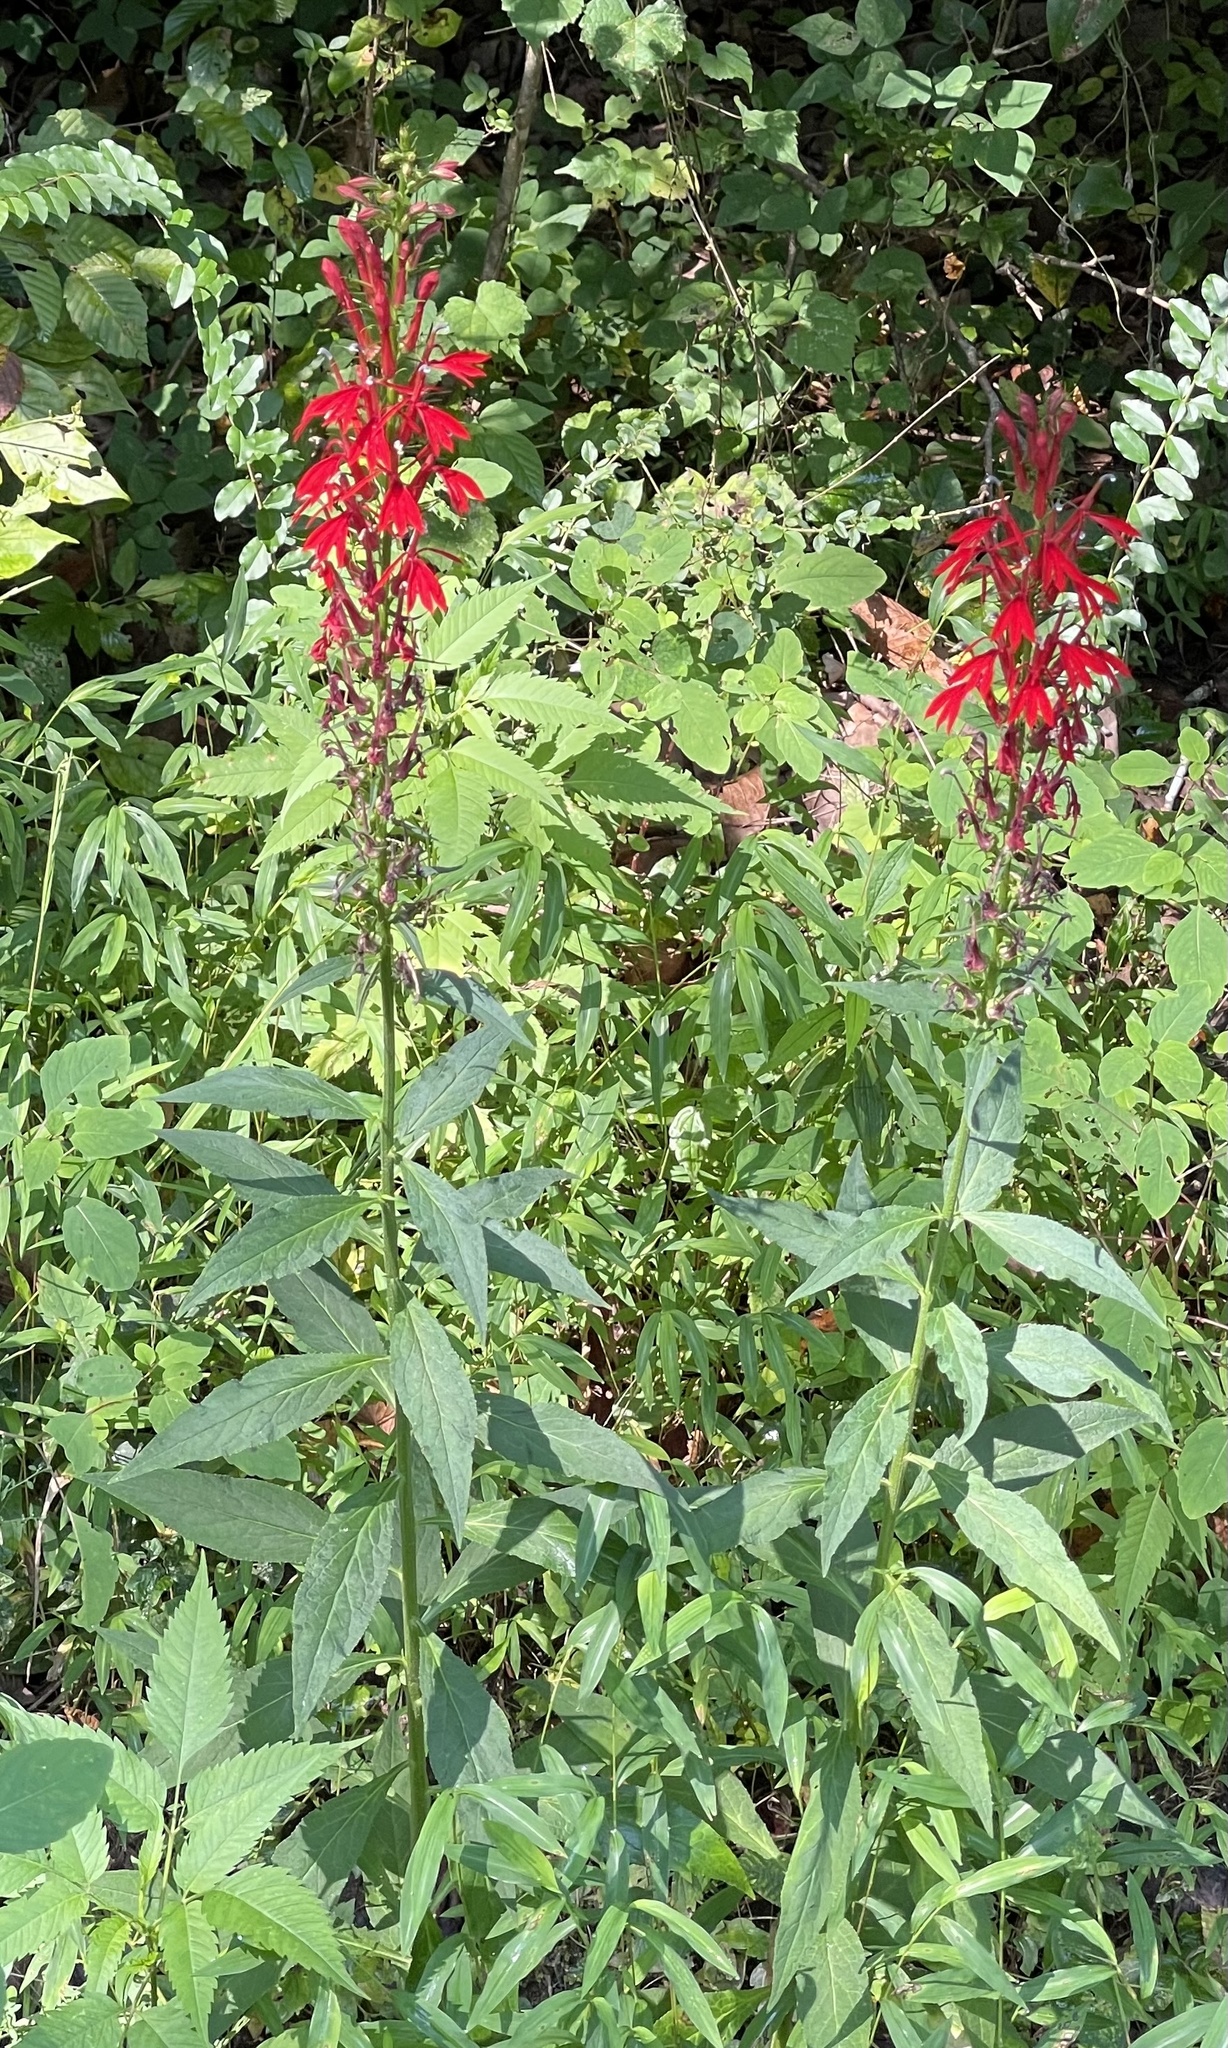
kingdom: Plantae
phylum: Tracheophyta
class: Magnoliopsida
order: Asterales
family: Campanulaceae
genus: Lobelia
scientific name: Lobelia cardinalis
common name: Cardinal flower
